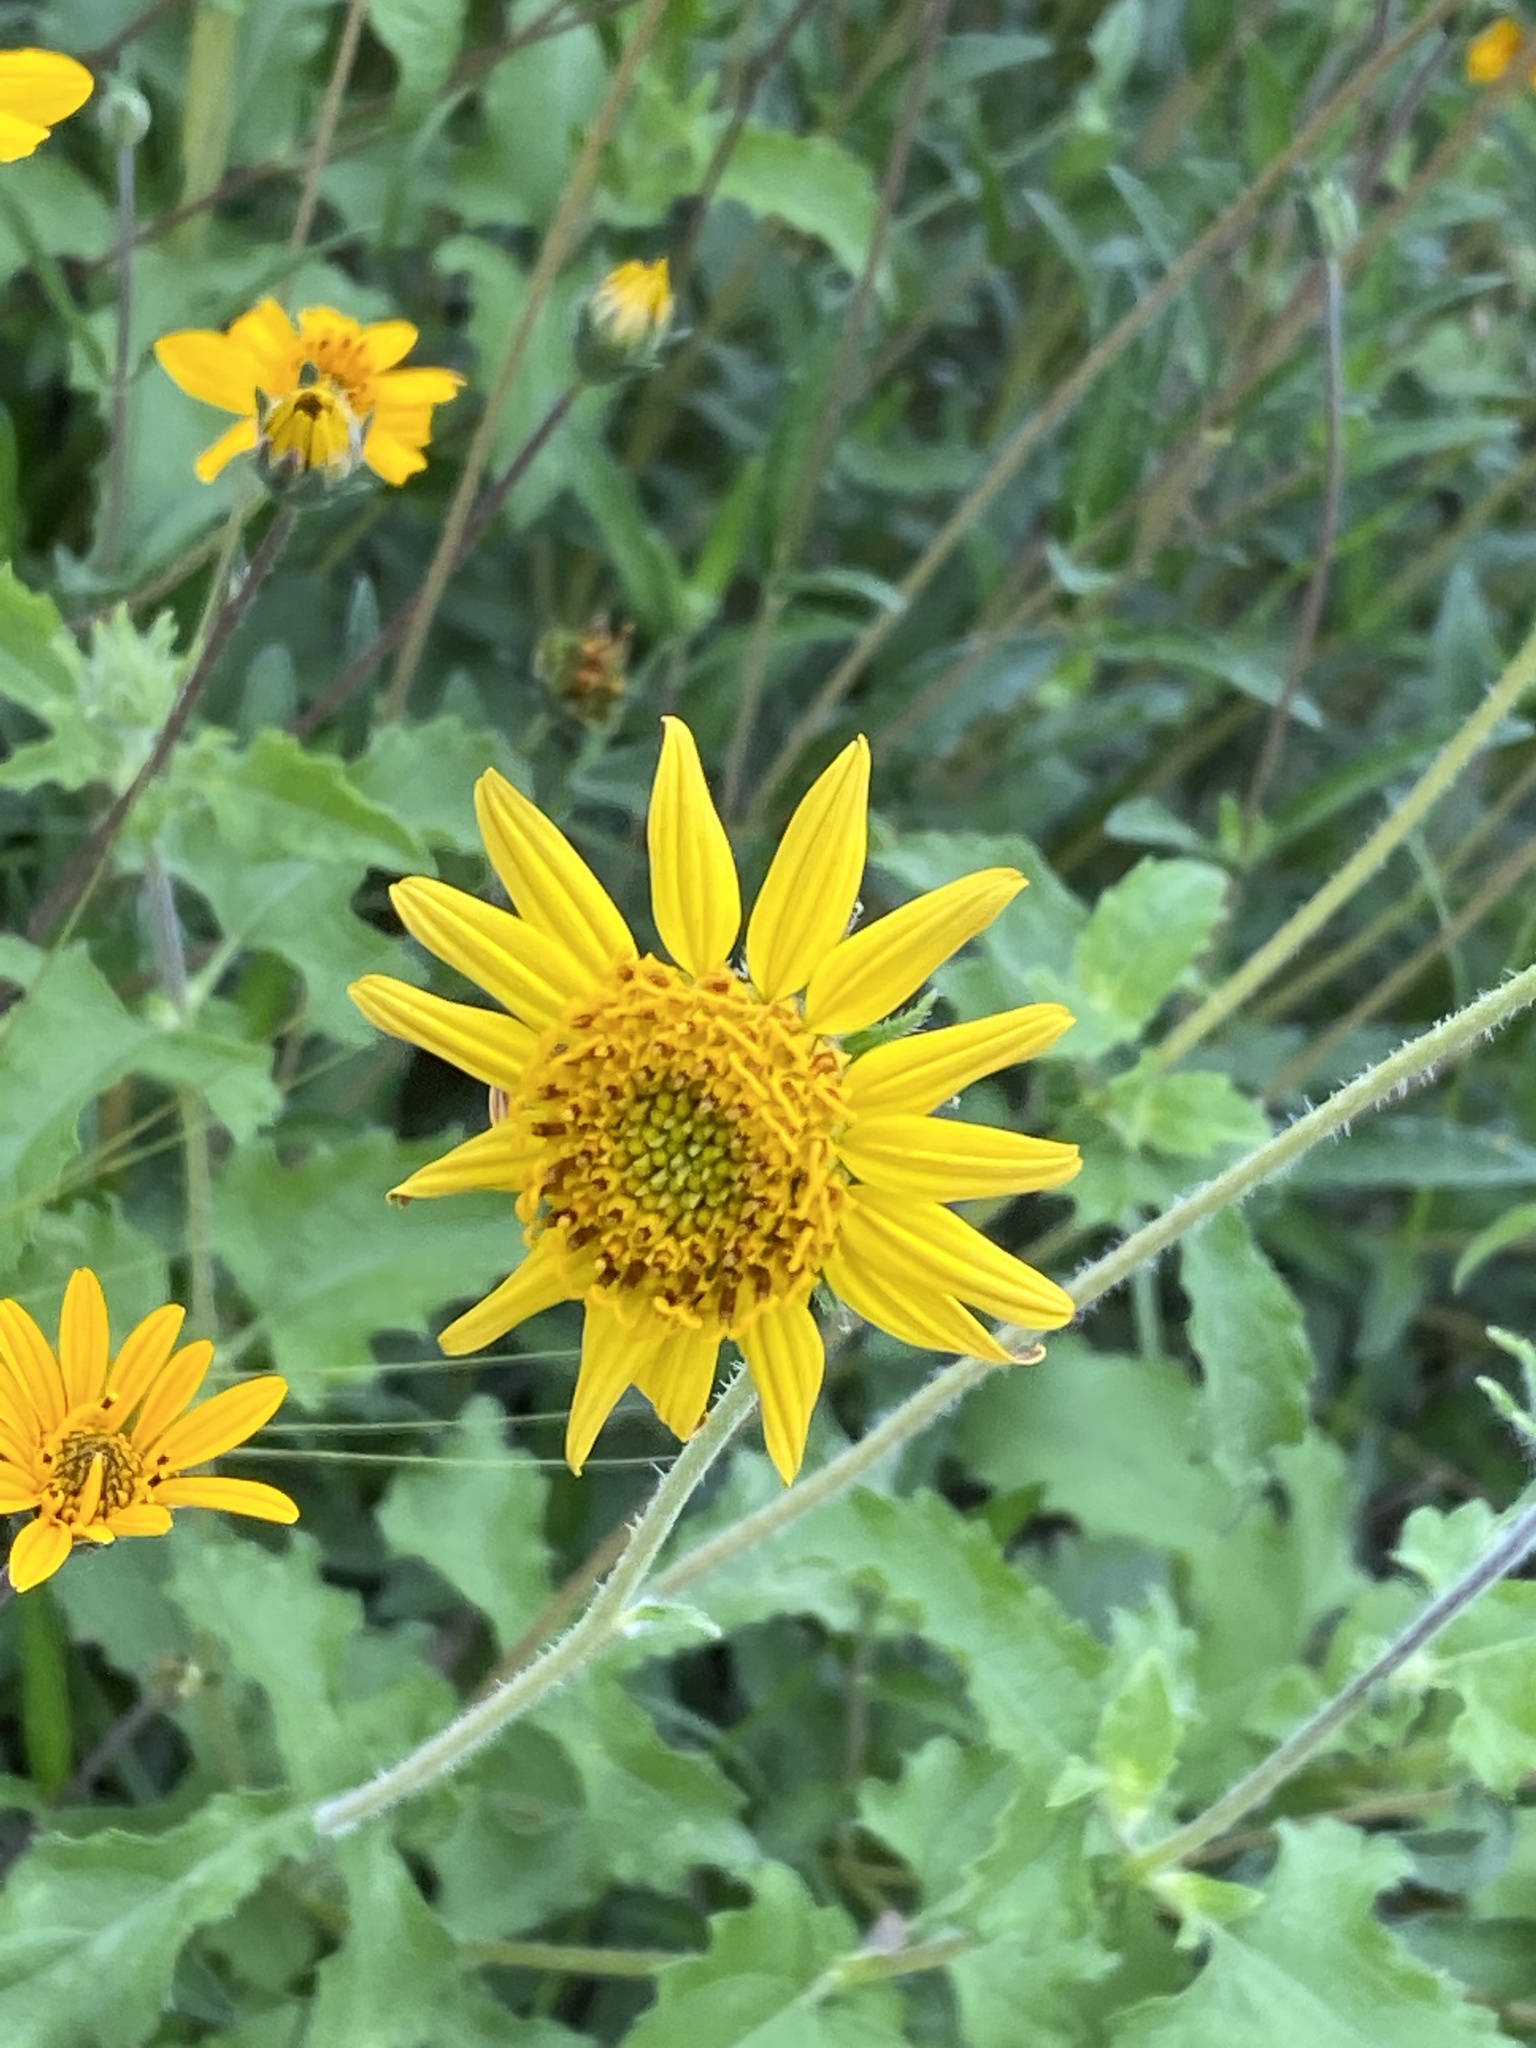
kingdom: Plantae
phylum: Tracheophyta
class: Magnoliopsida
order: Asterales
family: Asteraceae
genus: Simsia
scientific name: Simsia calva
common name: Awnless bush-sunflower
